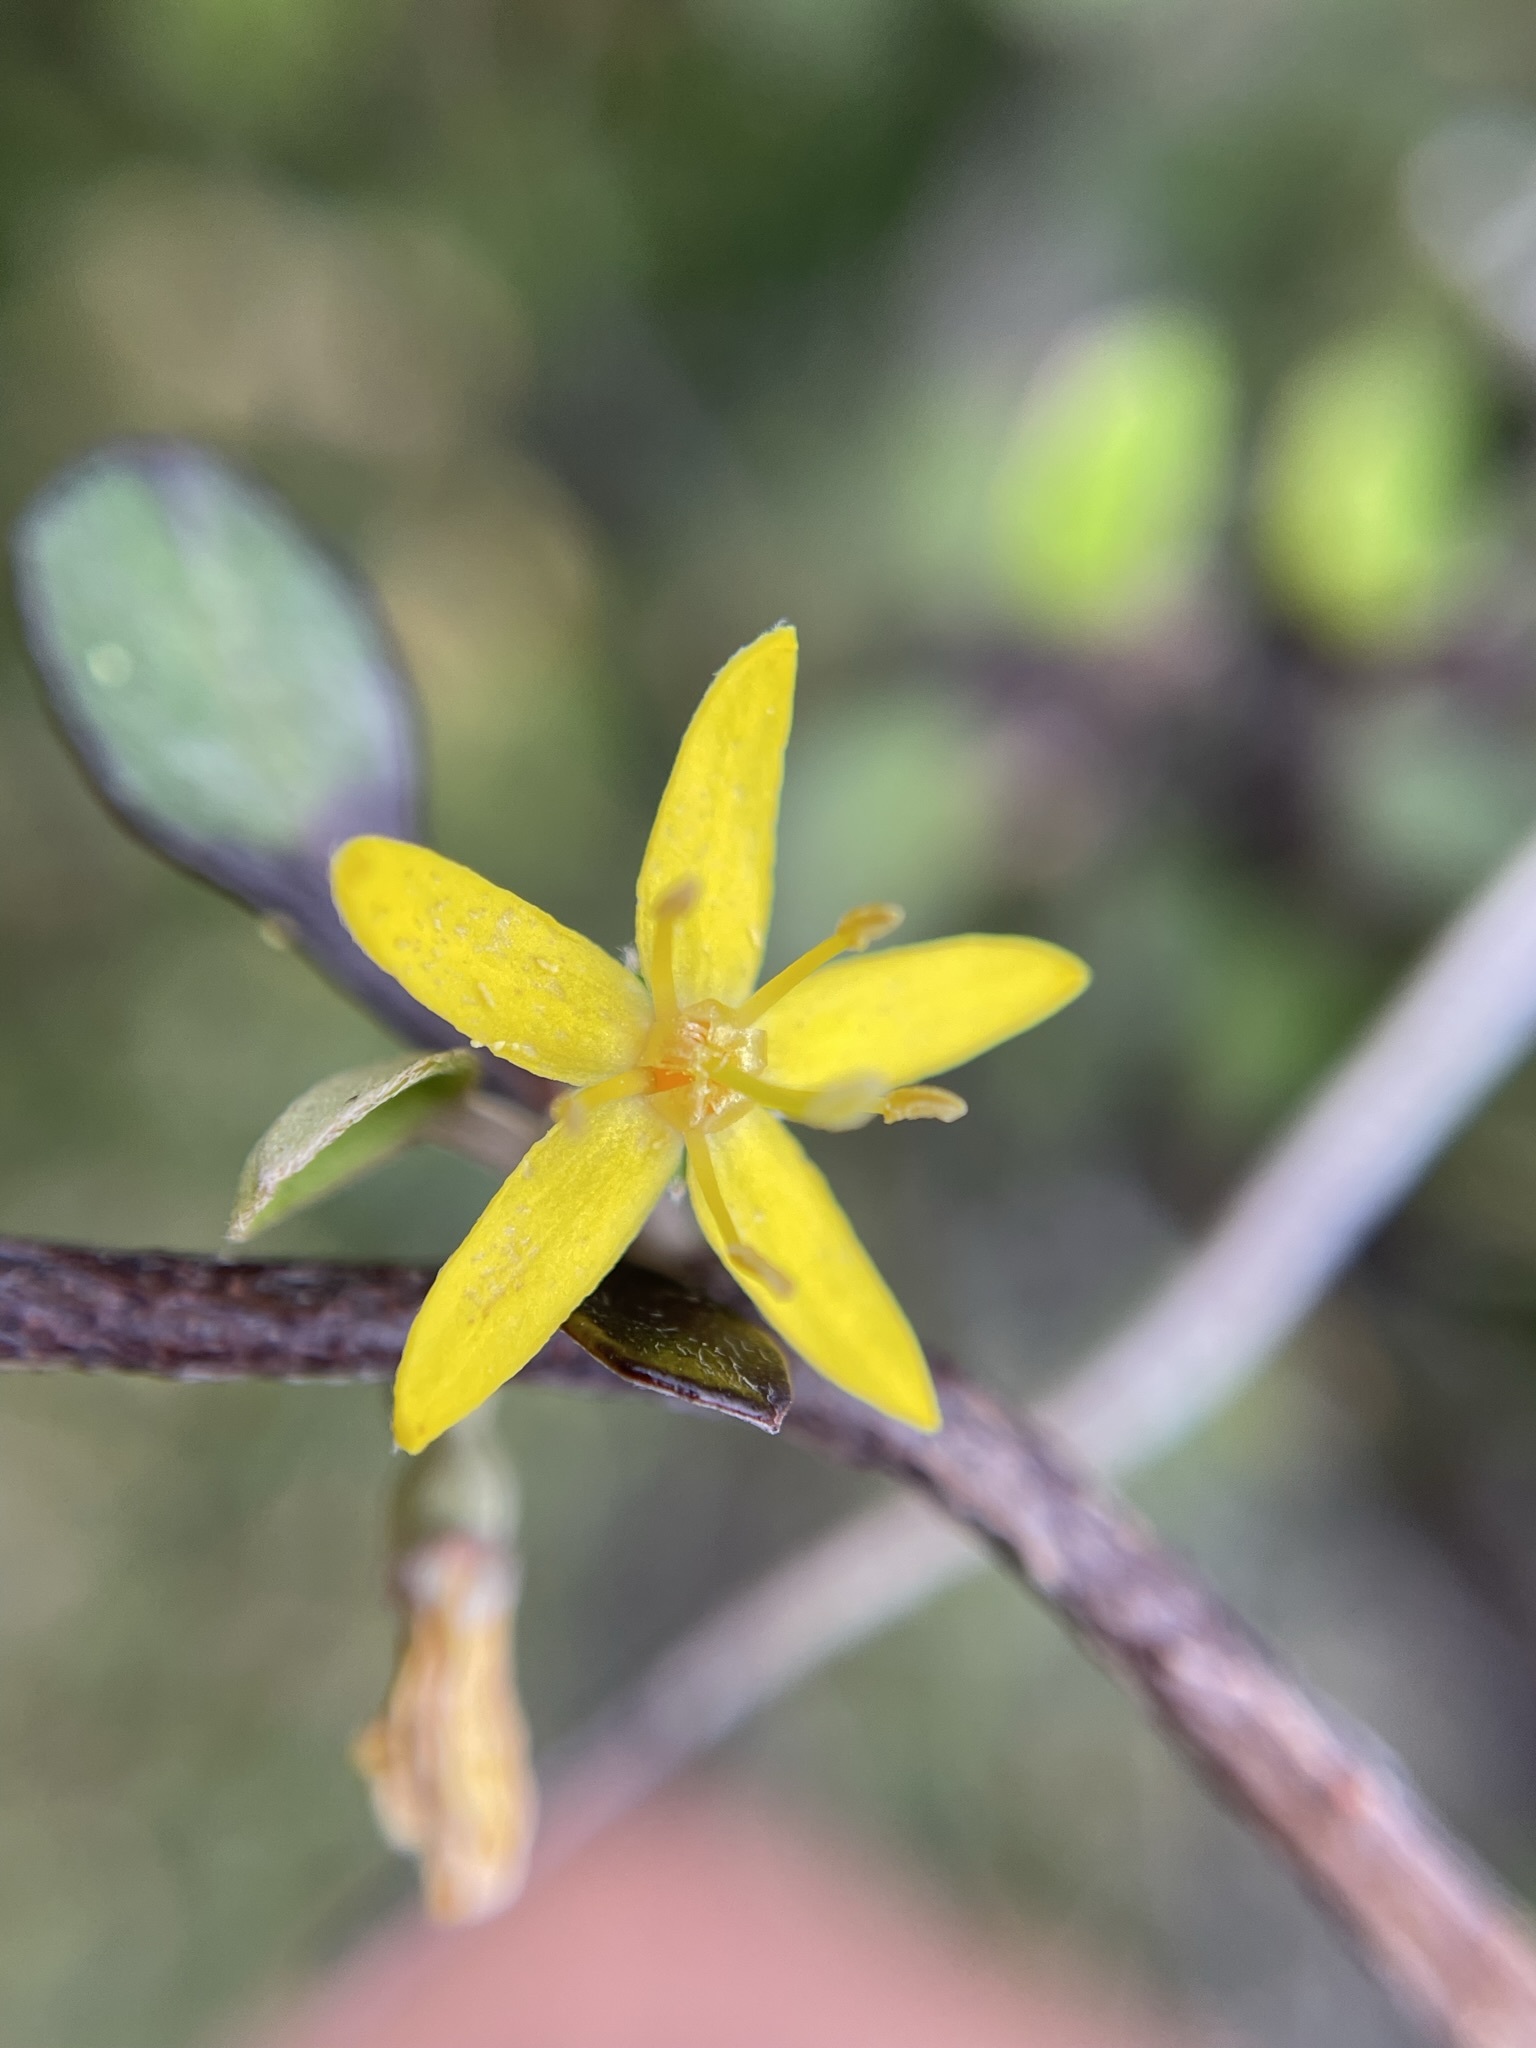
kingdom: Plantae
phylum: Tracheophyta
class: Magnoliopsida
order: Asterales
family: Argophyllaceae
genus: Corokia
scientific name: Corokia cotoneaster
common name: Wire nettingbush
